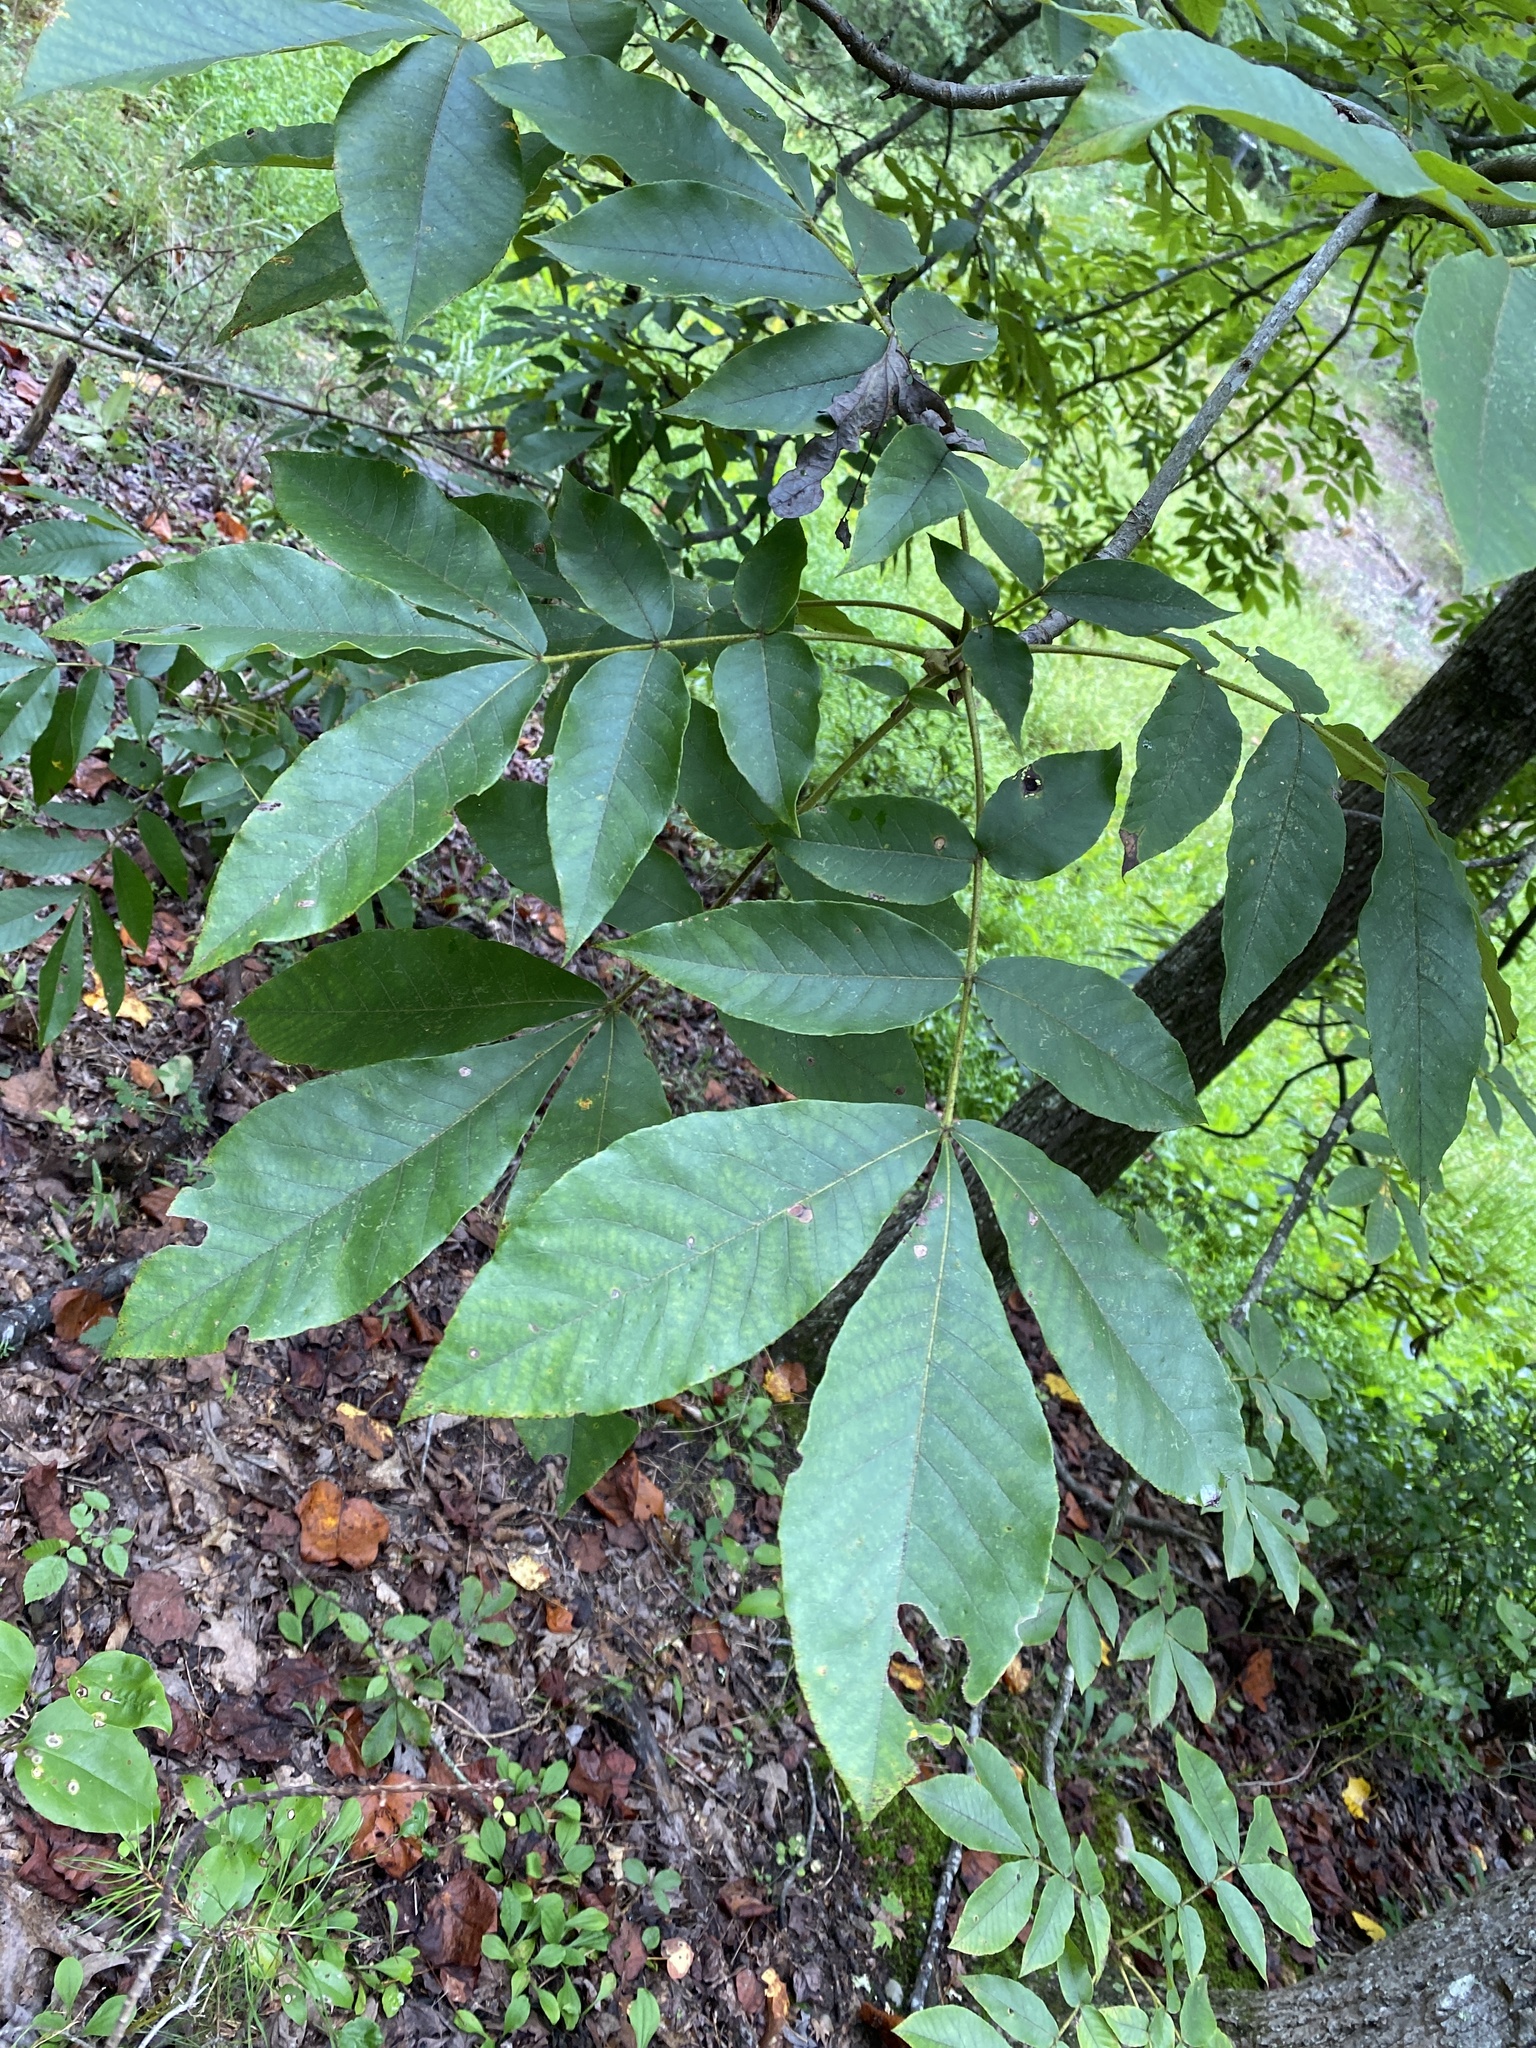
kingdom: Plantae
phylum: Tracheophyta
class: Magnoliopsida
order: Fagales
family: Juglandaceae
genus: Carya
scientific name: Carya alba
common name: Mockernut hickory
